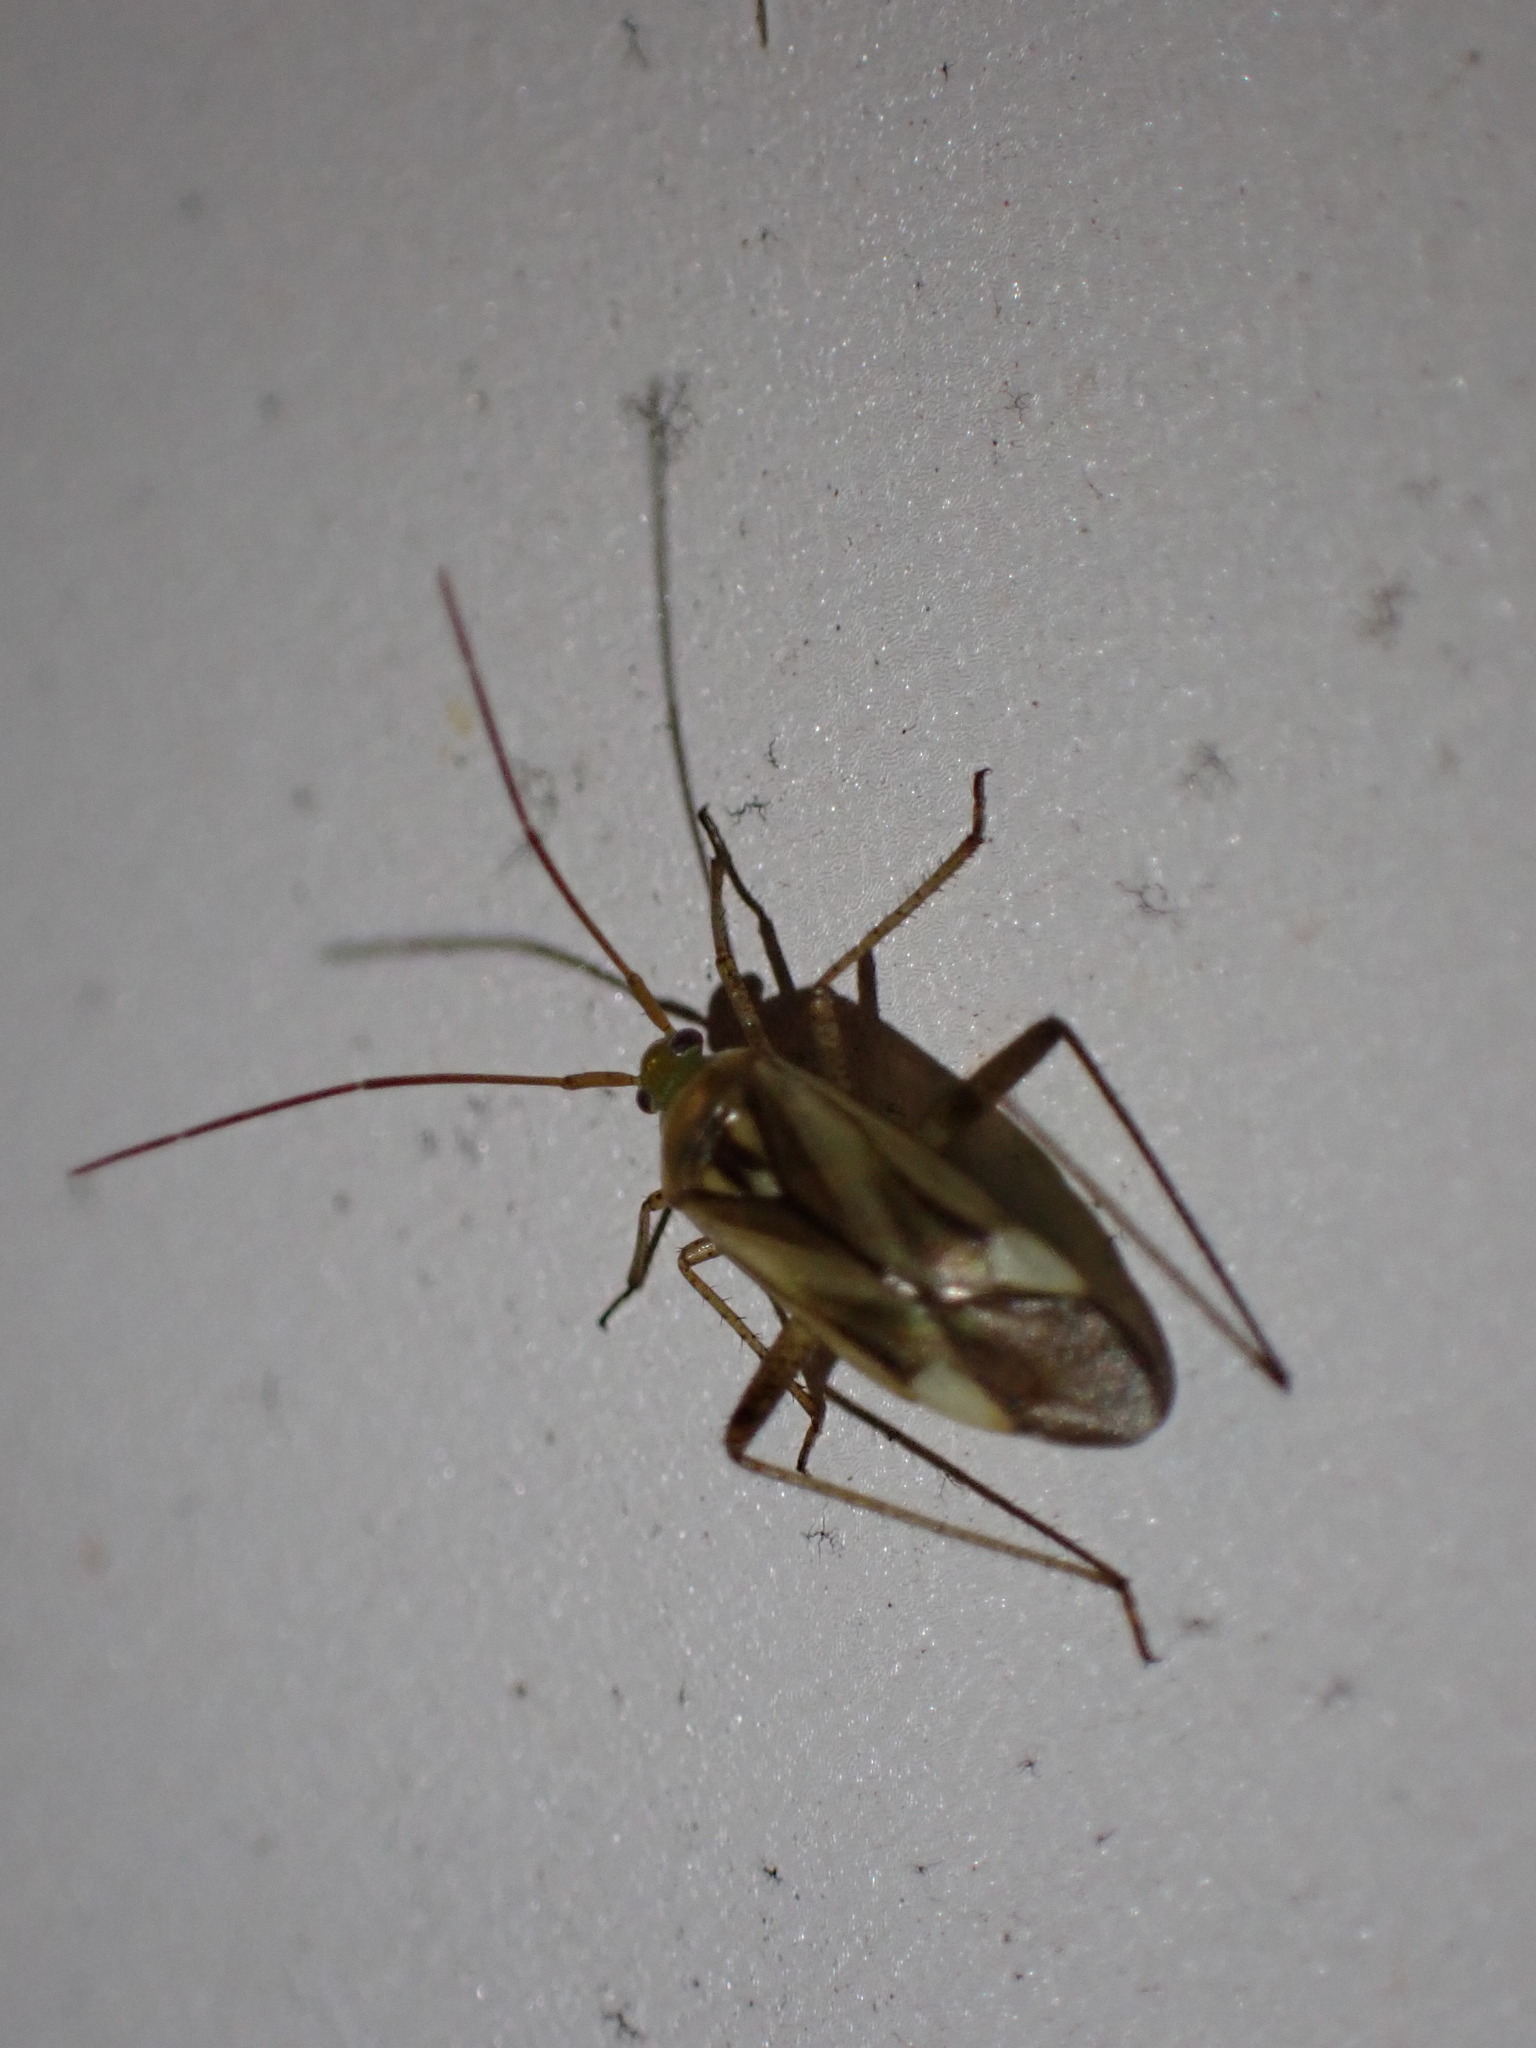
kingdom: Animalia
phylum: Arthropoda
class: Insecta
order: Hemiptera
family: Miridae
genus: Adelphocoris
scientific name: Adelphocoris lineolatus
